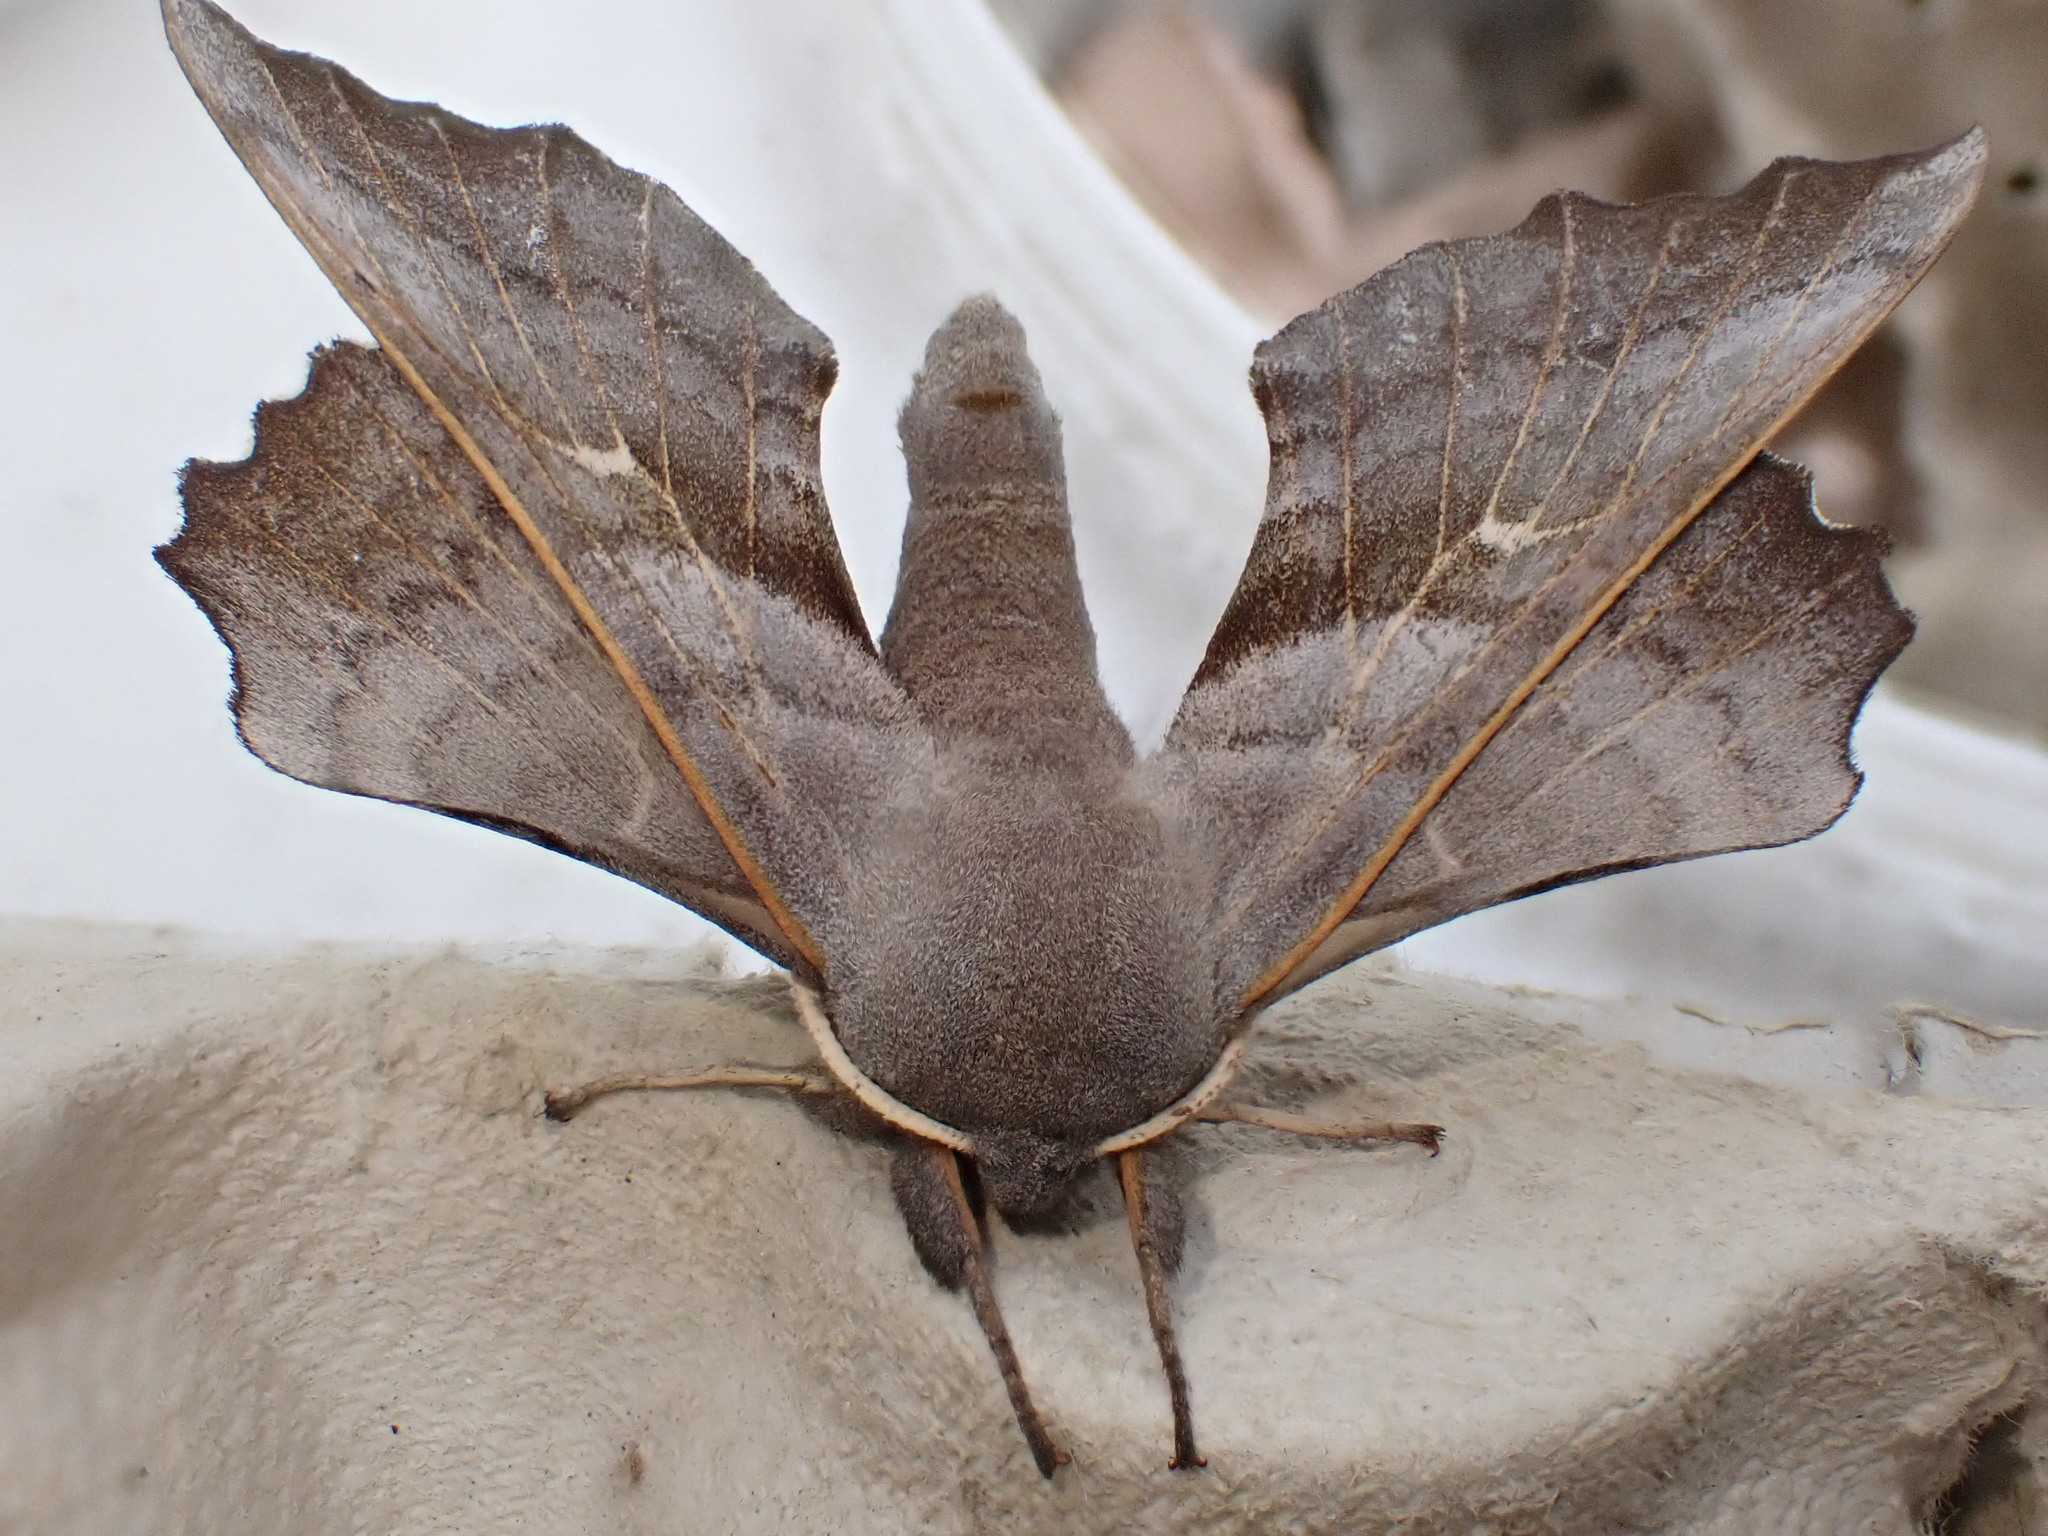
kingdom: Animalia
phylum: Arthropoda
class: Insecta
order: Lepidoptera
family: Sphingidae
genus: Laothoe
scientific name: Laothoe populi
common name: Poplar hawk-moth
